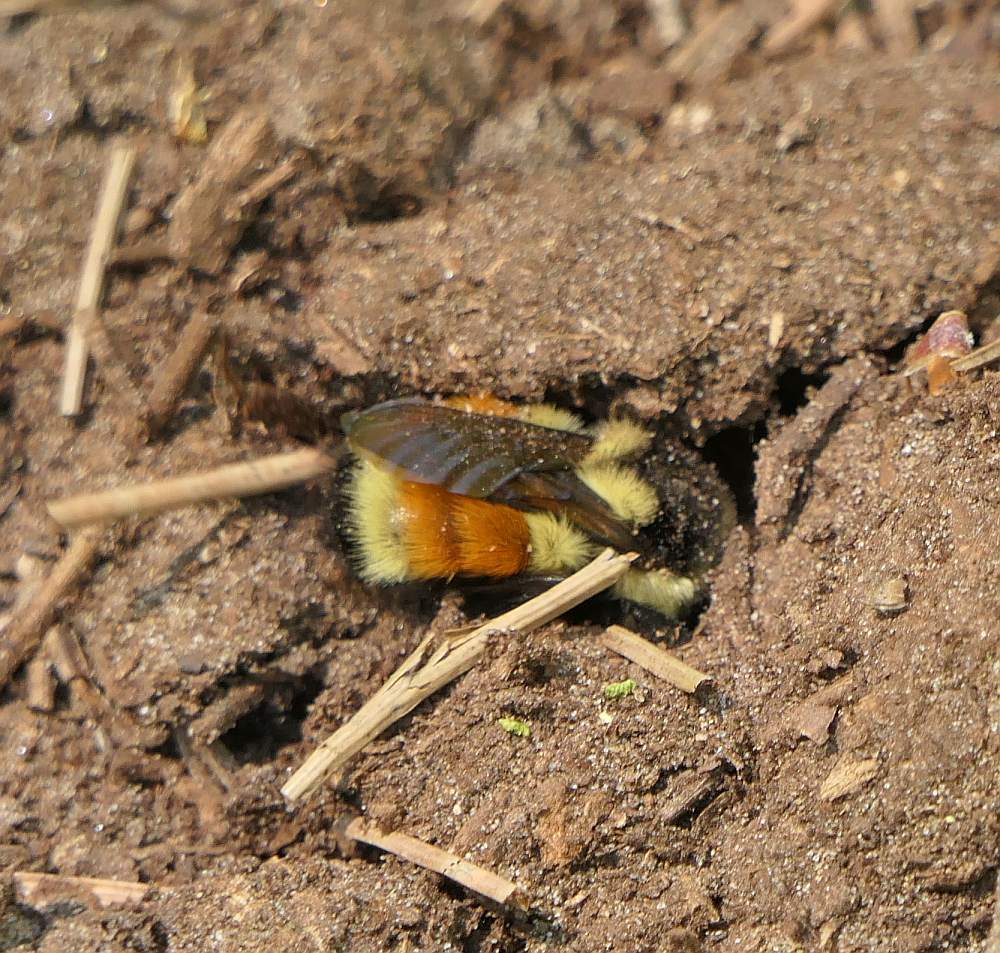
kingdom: Animalia
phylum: Arthropoda
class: Insecta
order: Hymenoptera
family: Apidae
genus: Bombus
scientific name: Bombus ternarius
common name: Tri-colored bumble bee
